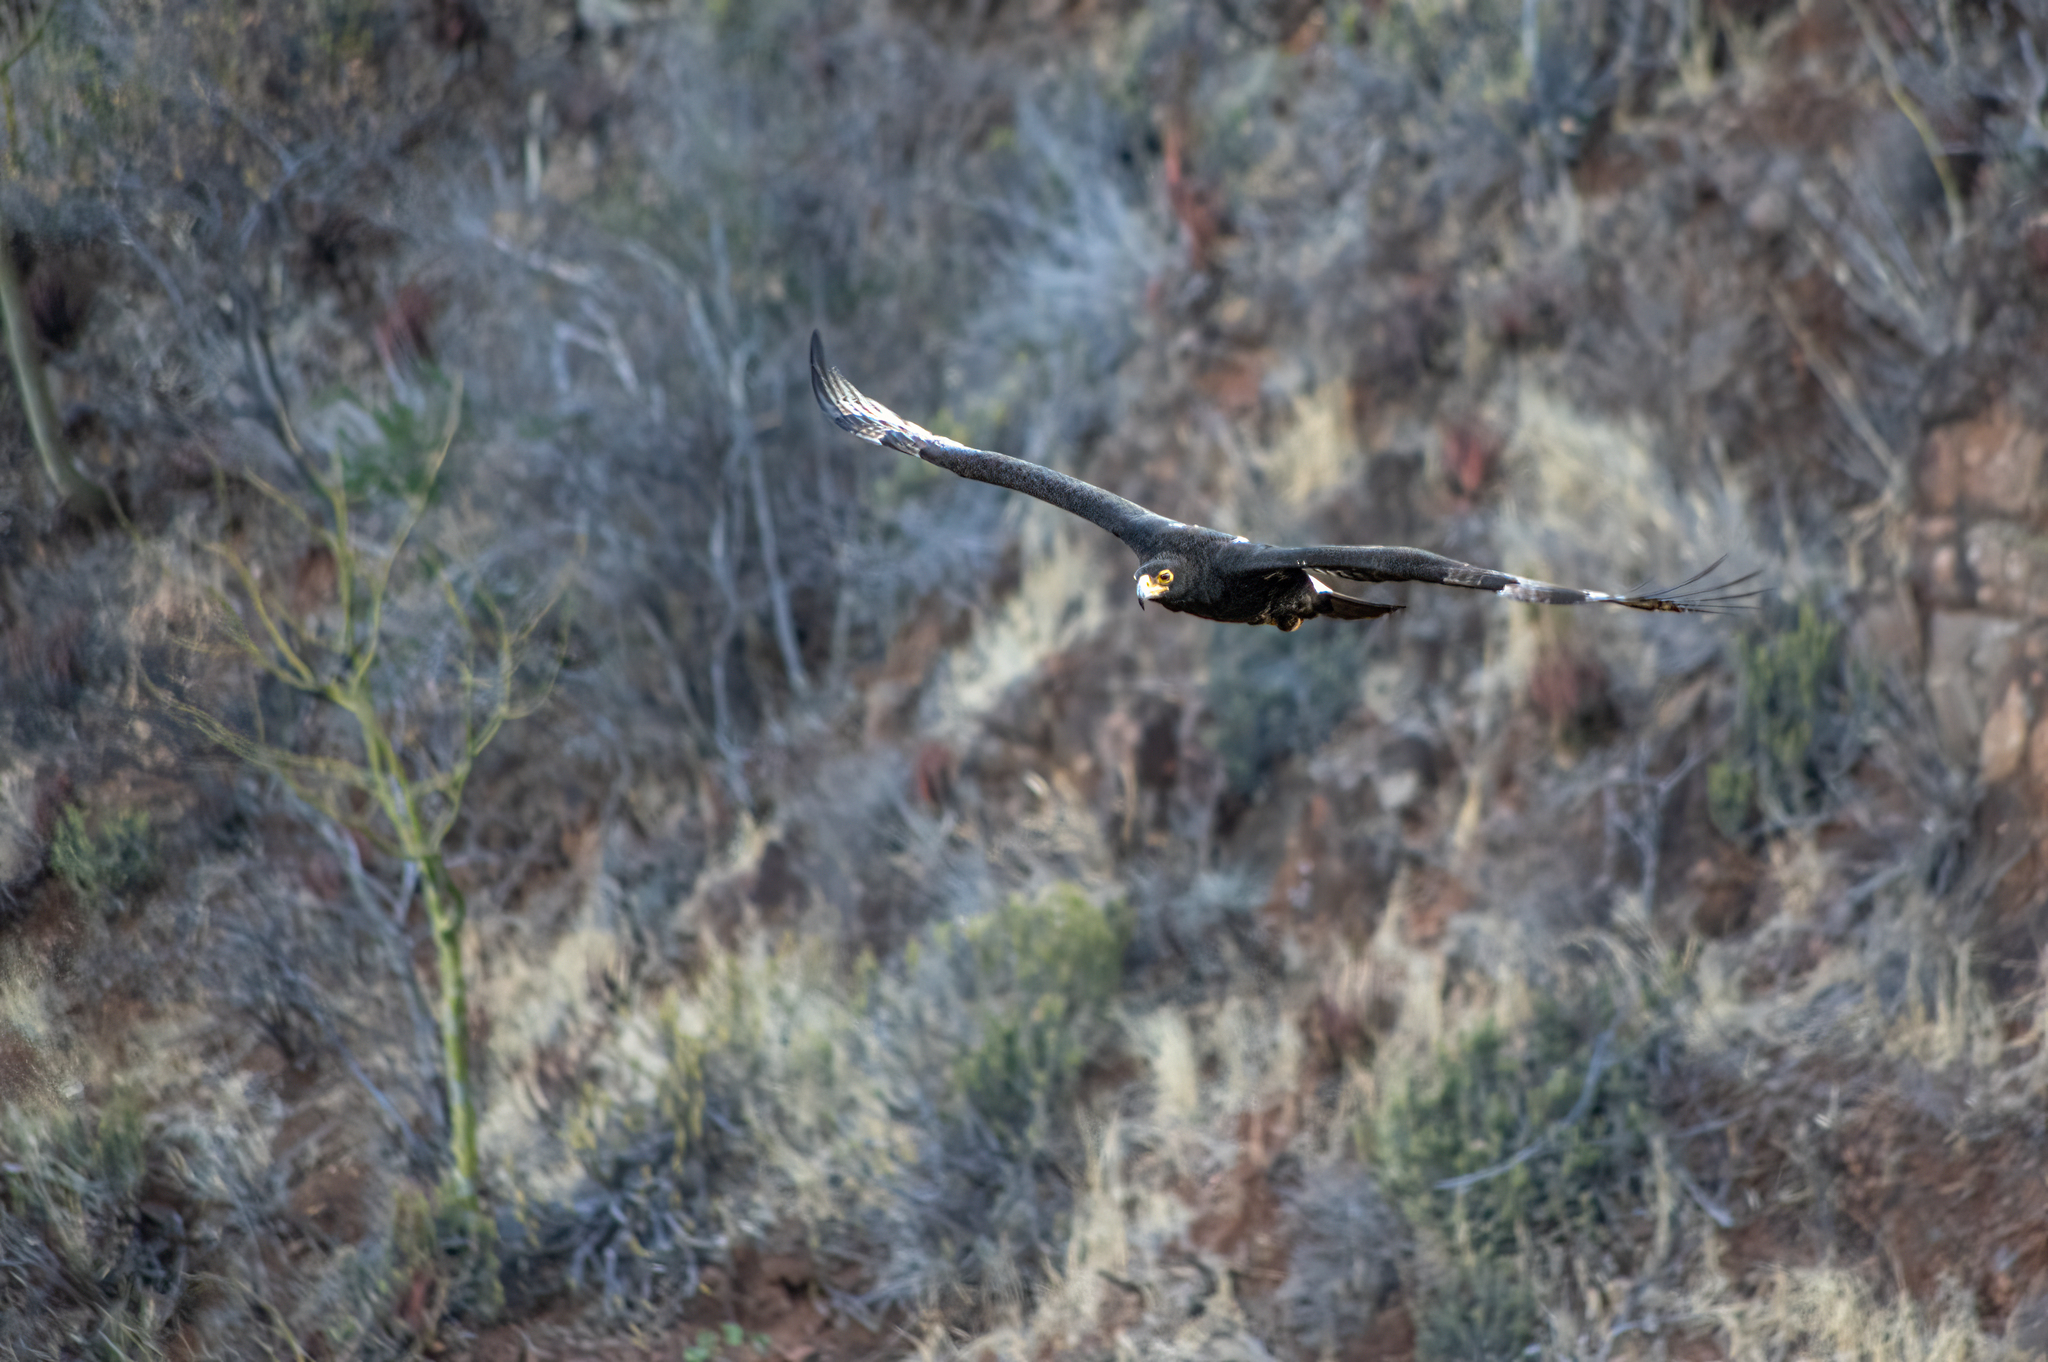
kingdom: Animalia
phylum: Chordata
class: Aves
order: Accipitriformes
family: Accipitridae
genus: Aquila
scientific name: Aquila verreauxii
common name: Verreaux's eagle
